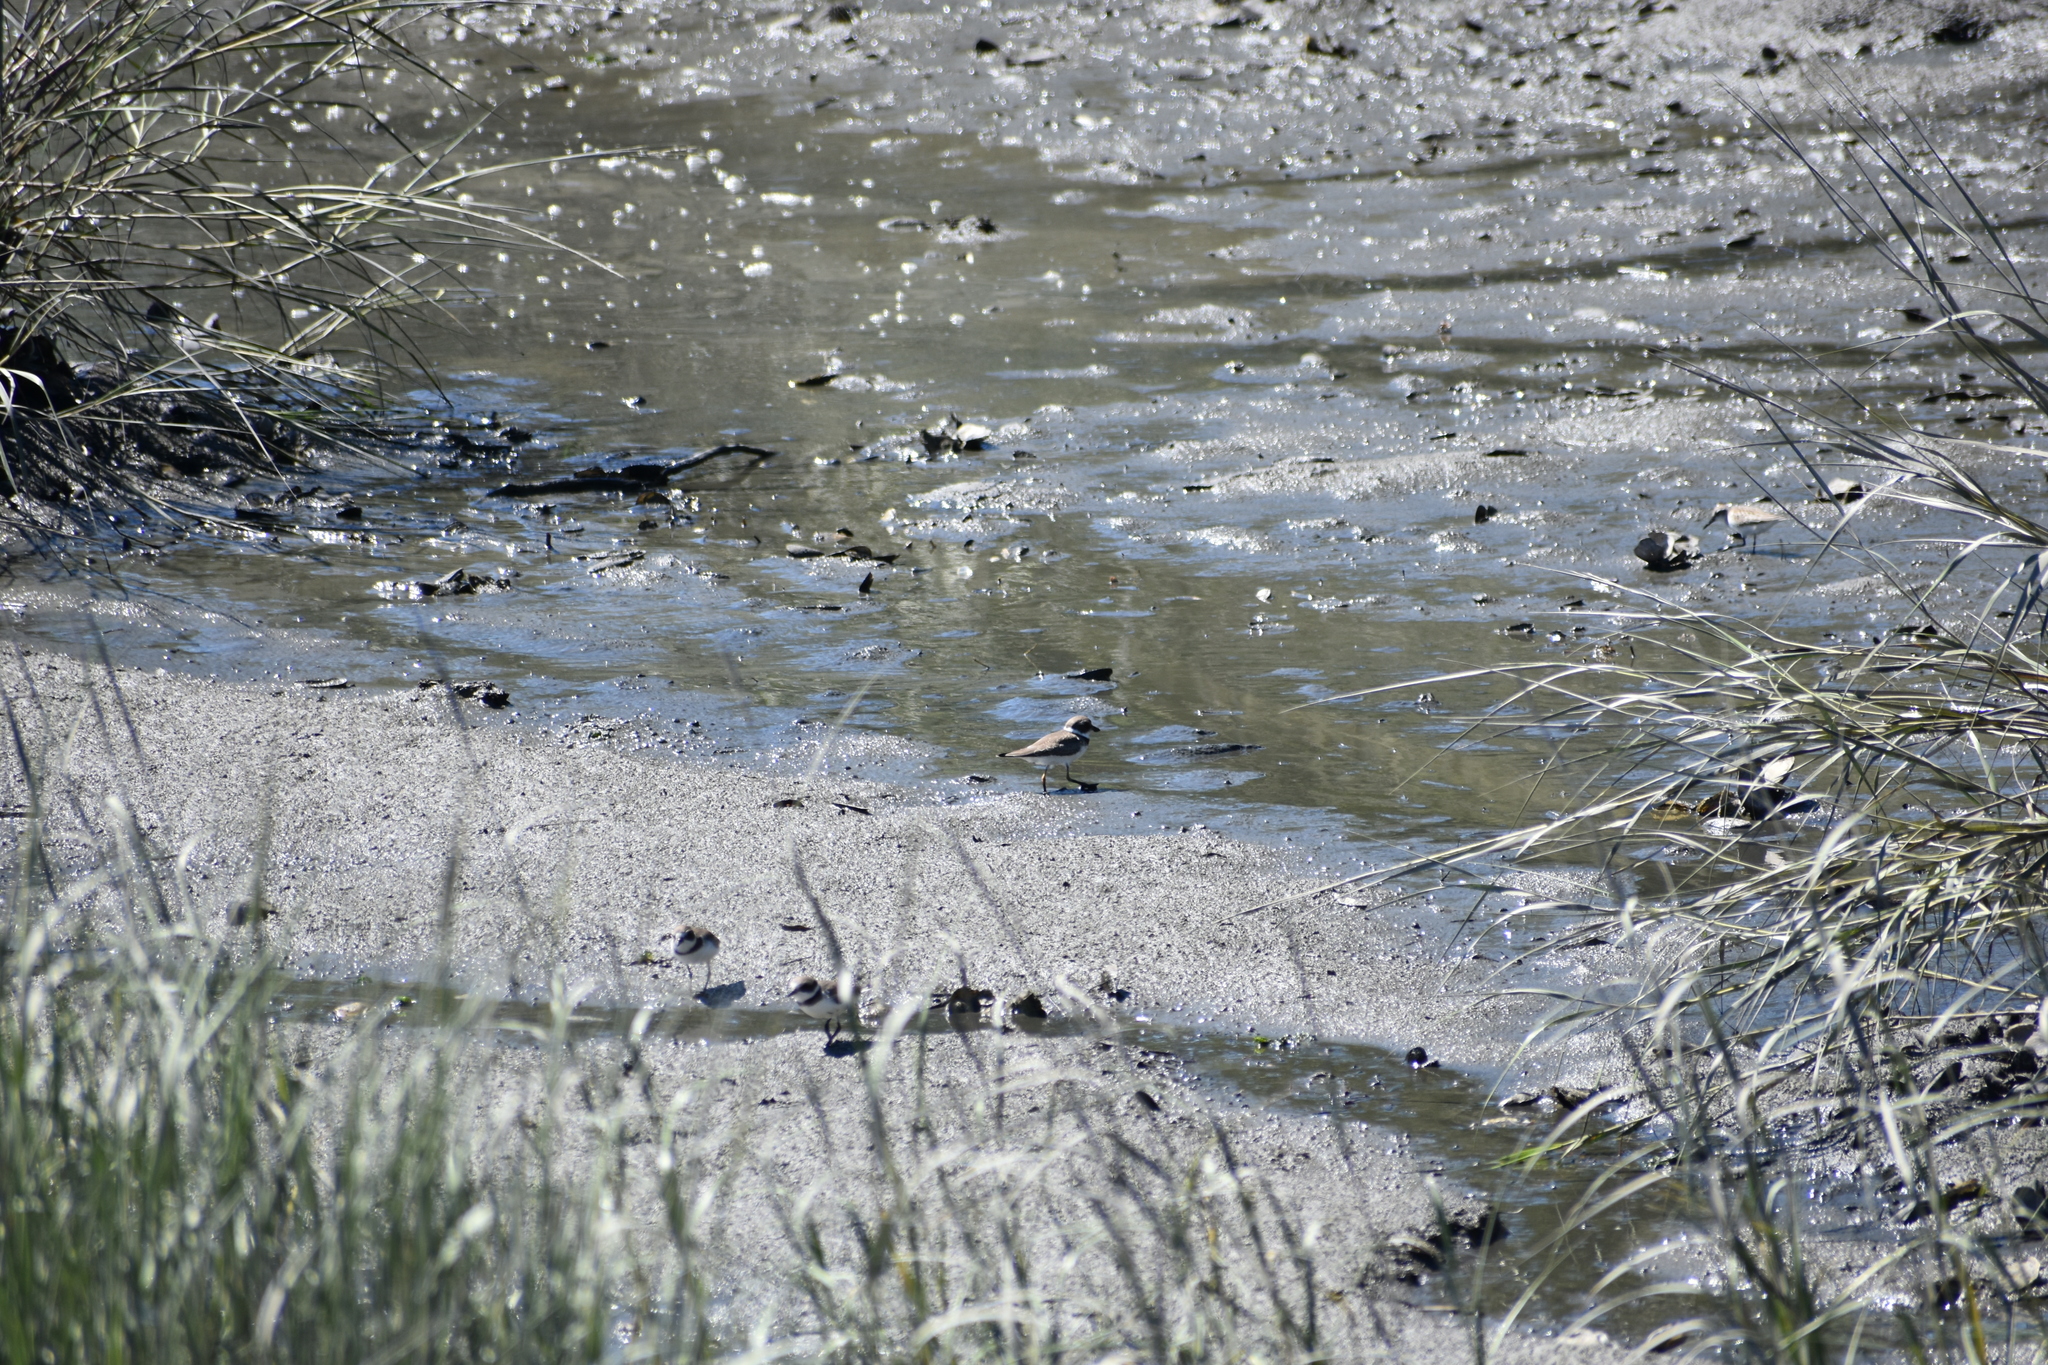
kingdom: Animalia
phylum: Chordata
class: Aves
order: Charadriiformes
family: Charadriidae
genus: Charadrius
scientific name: Charadrius semipalmatus
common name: Semipalmated plover
